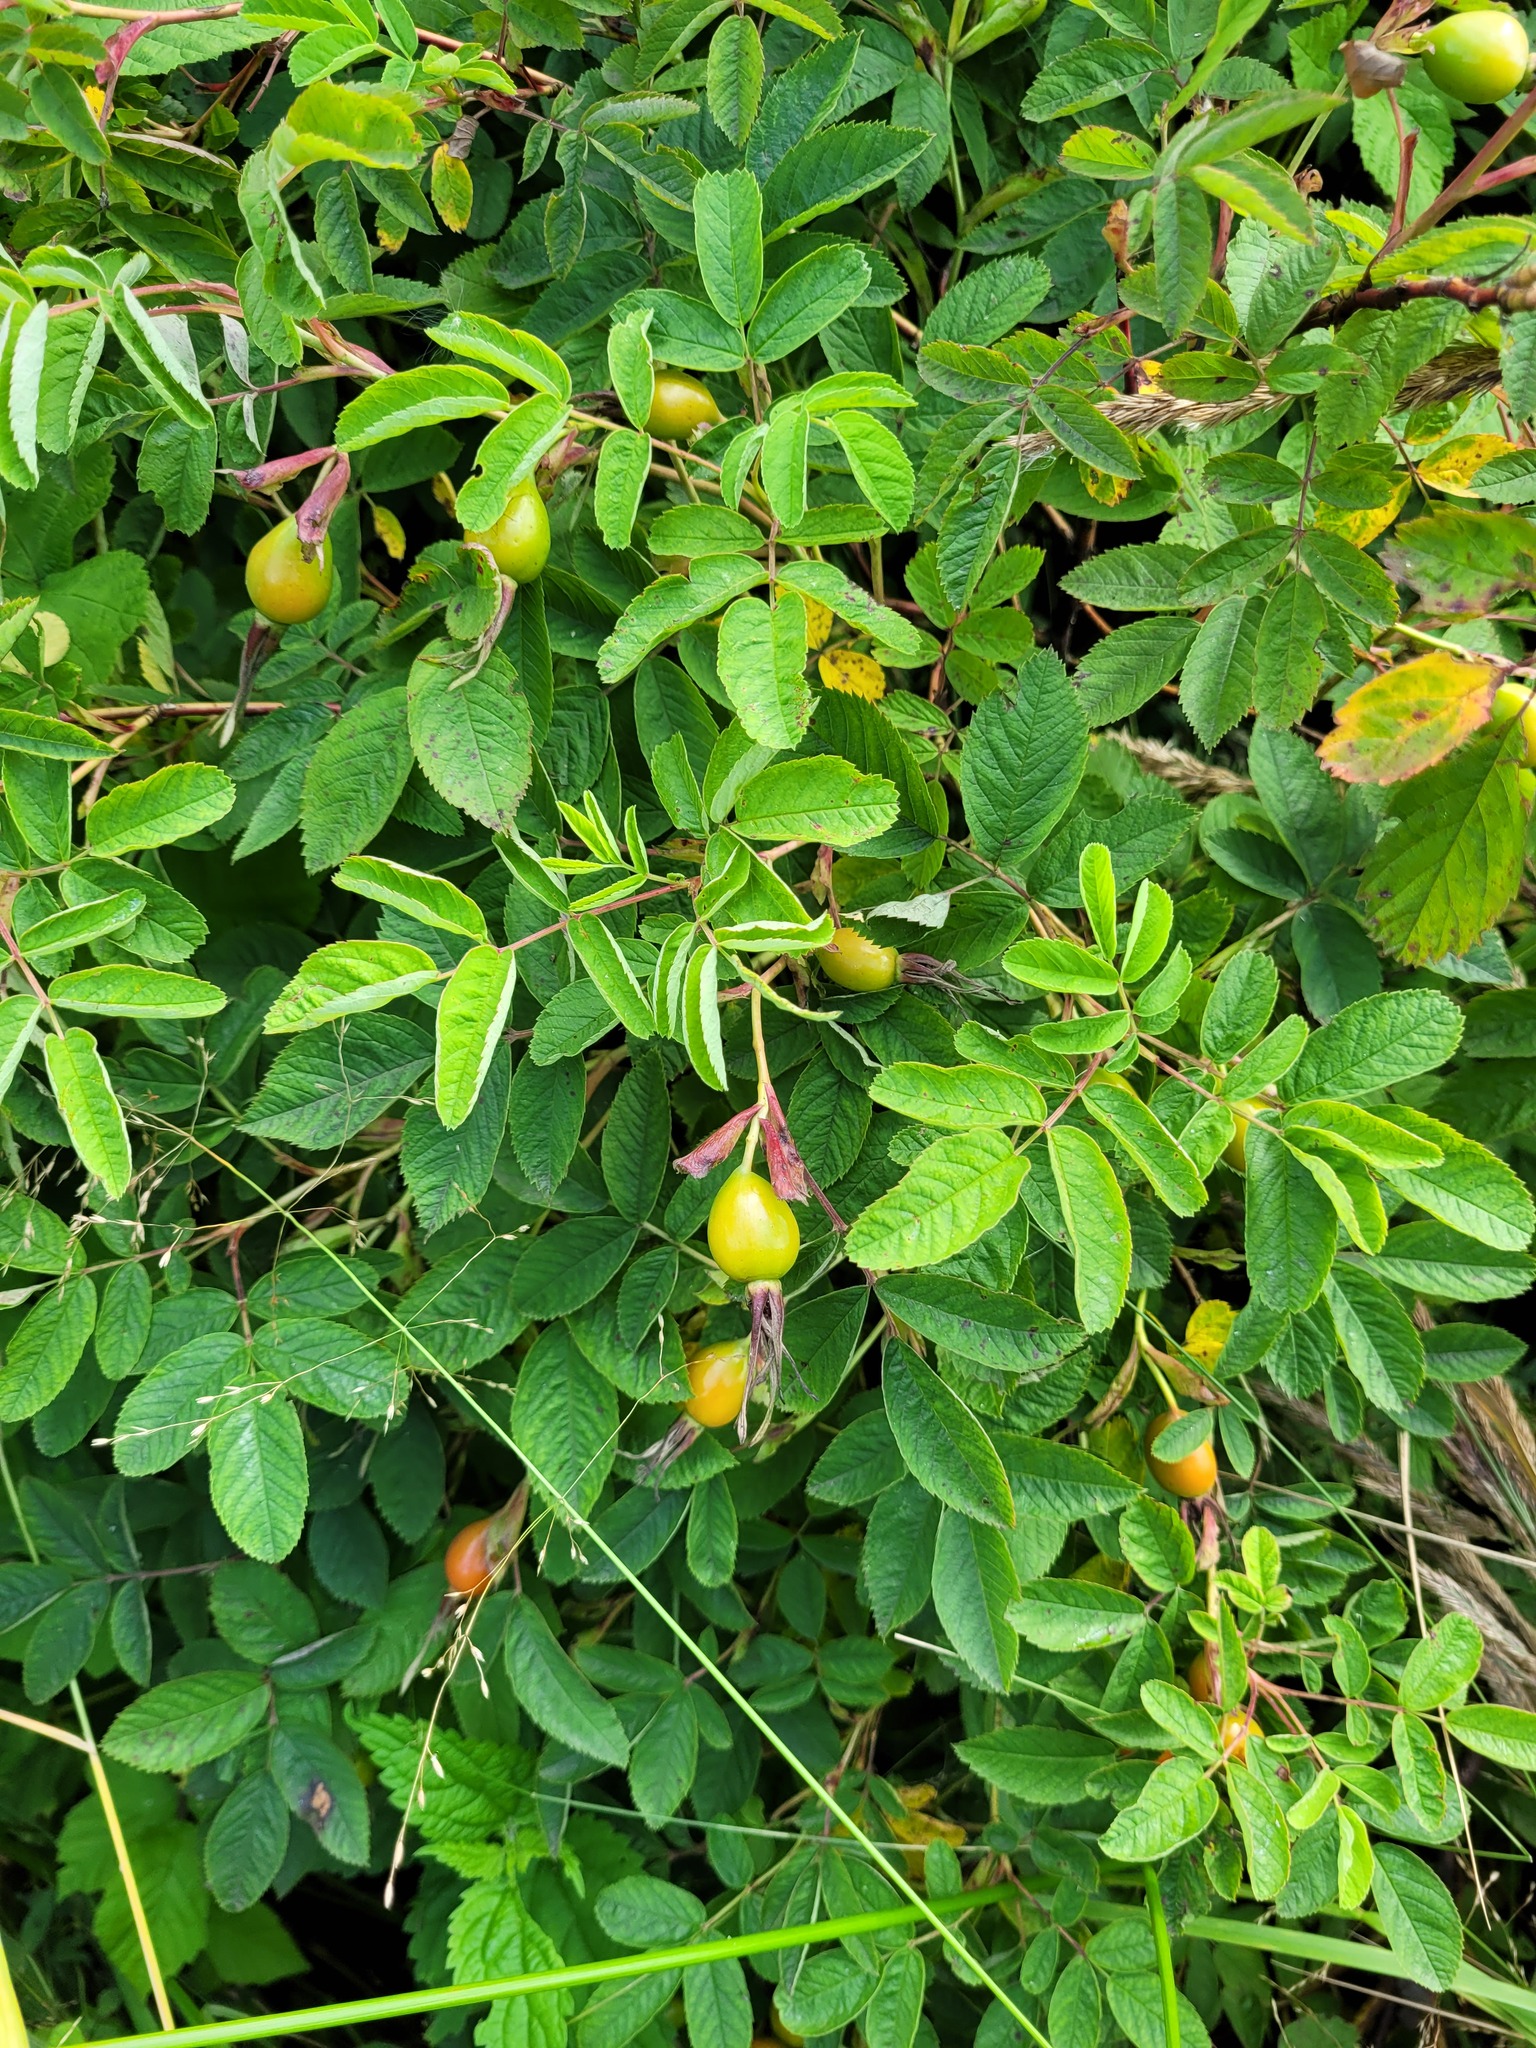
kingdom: Plantae
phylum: Tracheophyta
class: Magnoliopsida
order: Rosales
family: Rosaceae
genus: Rosa
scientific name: Rosa majalis
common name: Cinnamon rose
